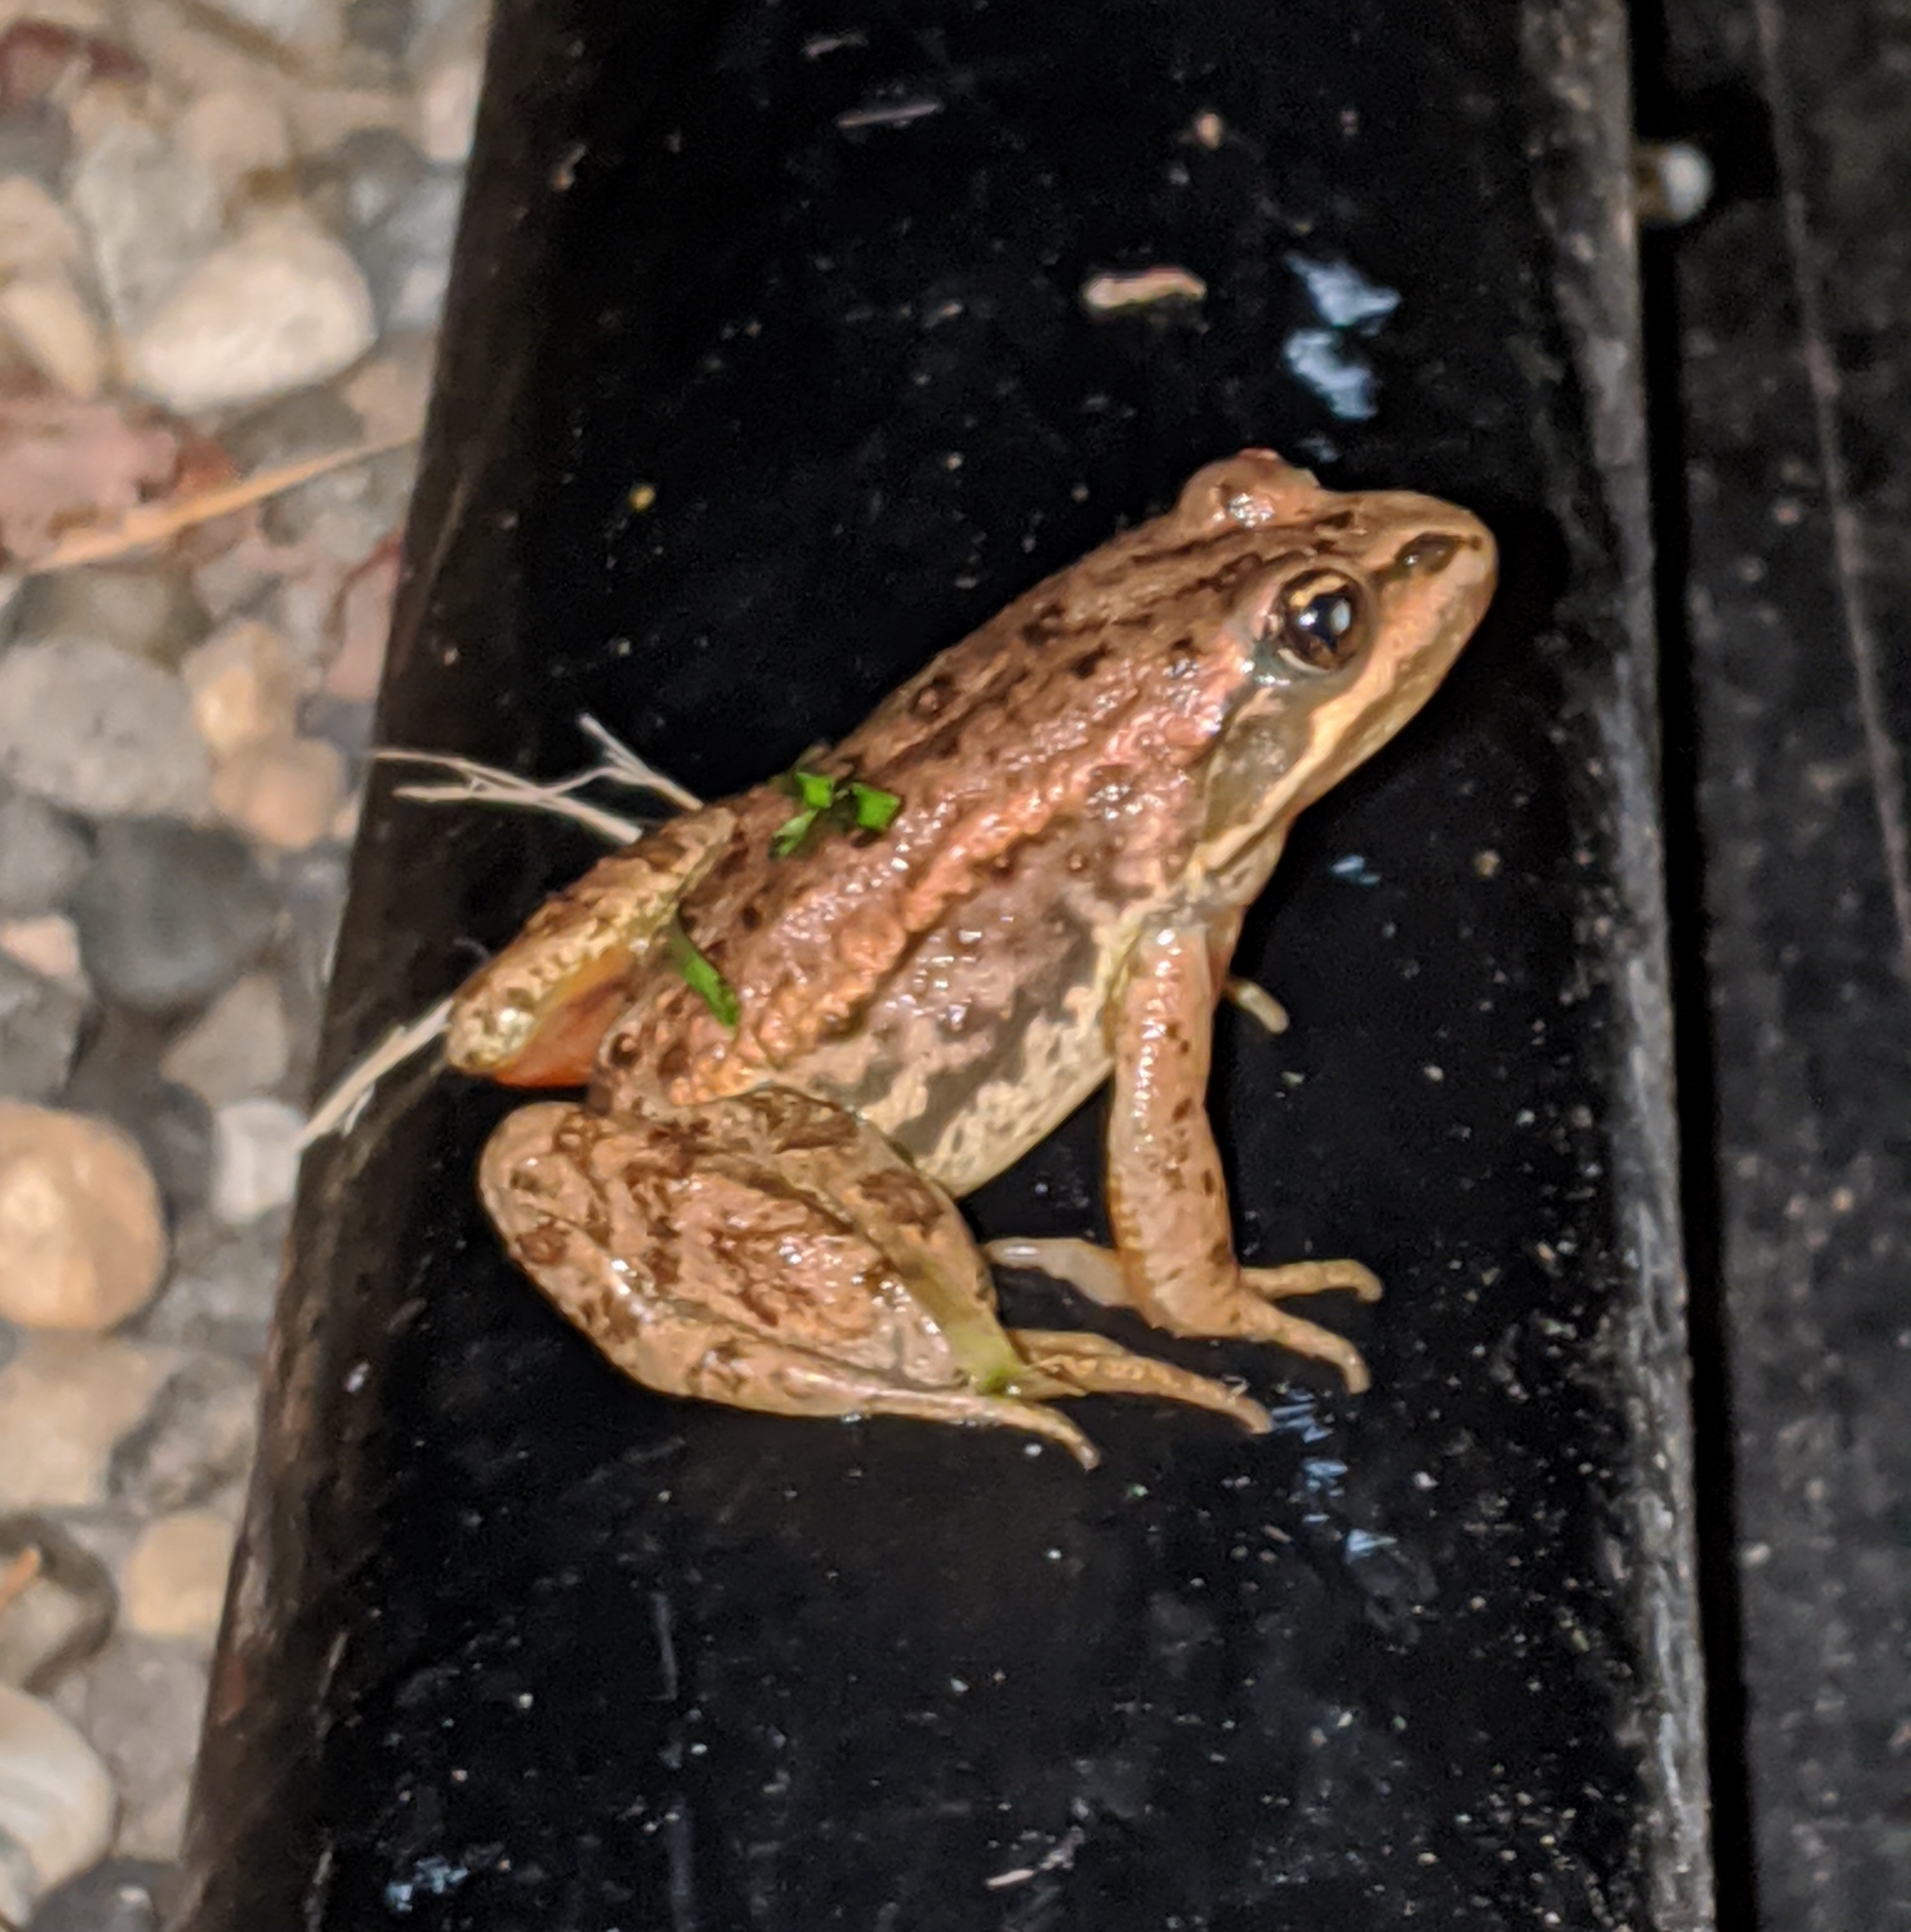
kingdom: Animalia
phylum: Chordata
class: Amphibia
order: Anura
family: Ranidae
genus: Rana
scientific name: Rana luteiventris
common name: Columbia spotted frog
